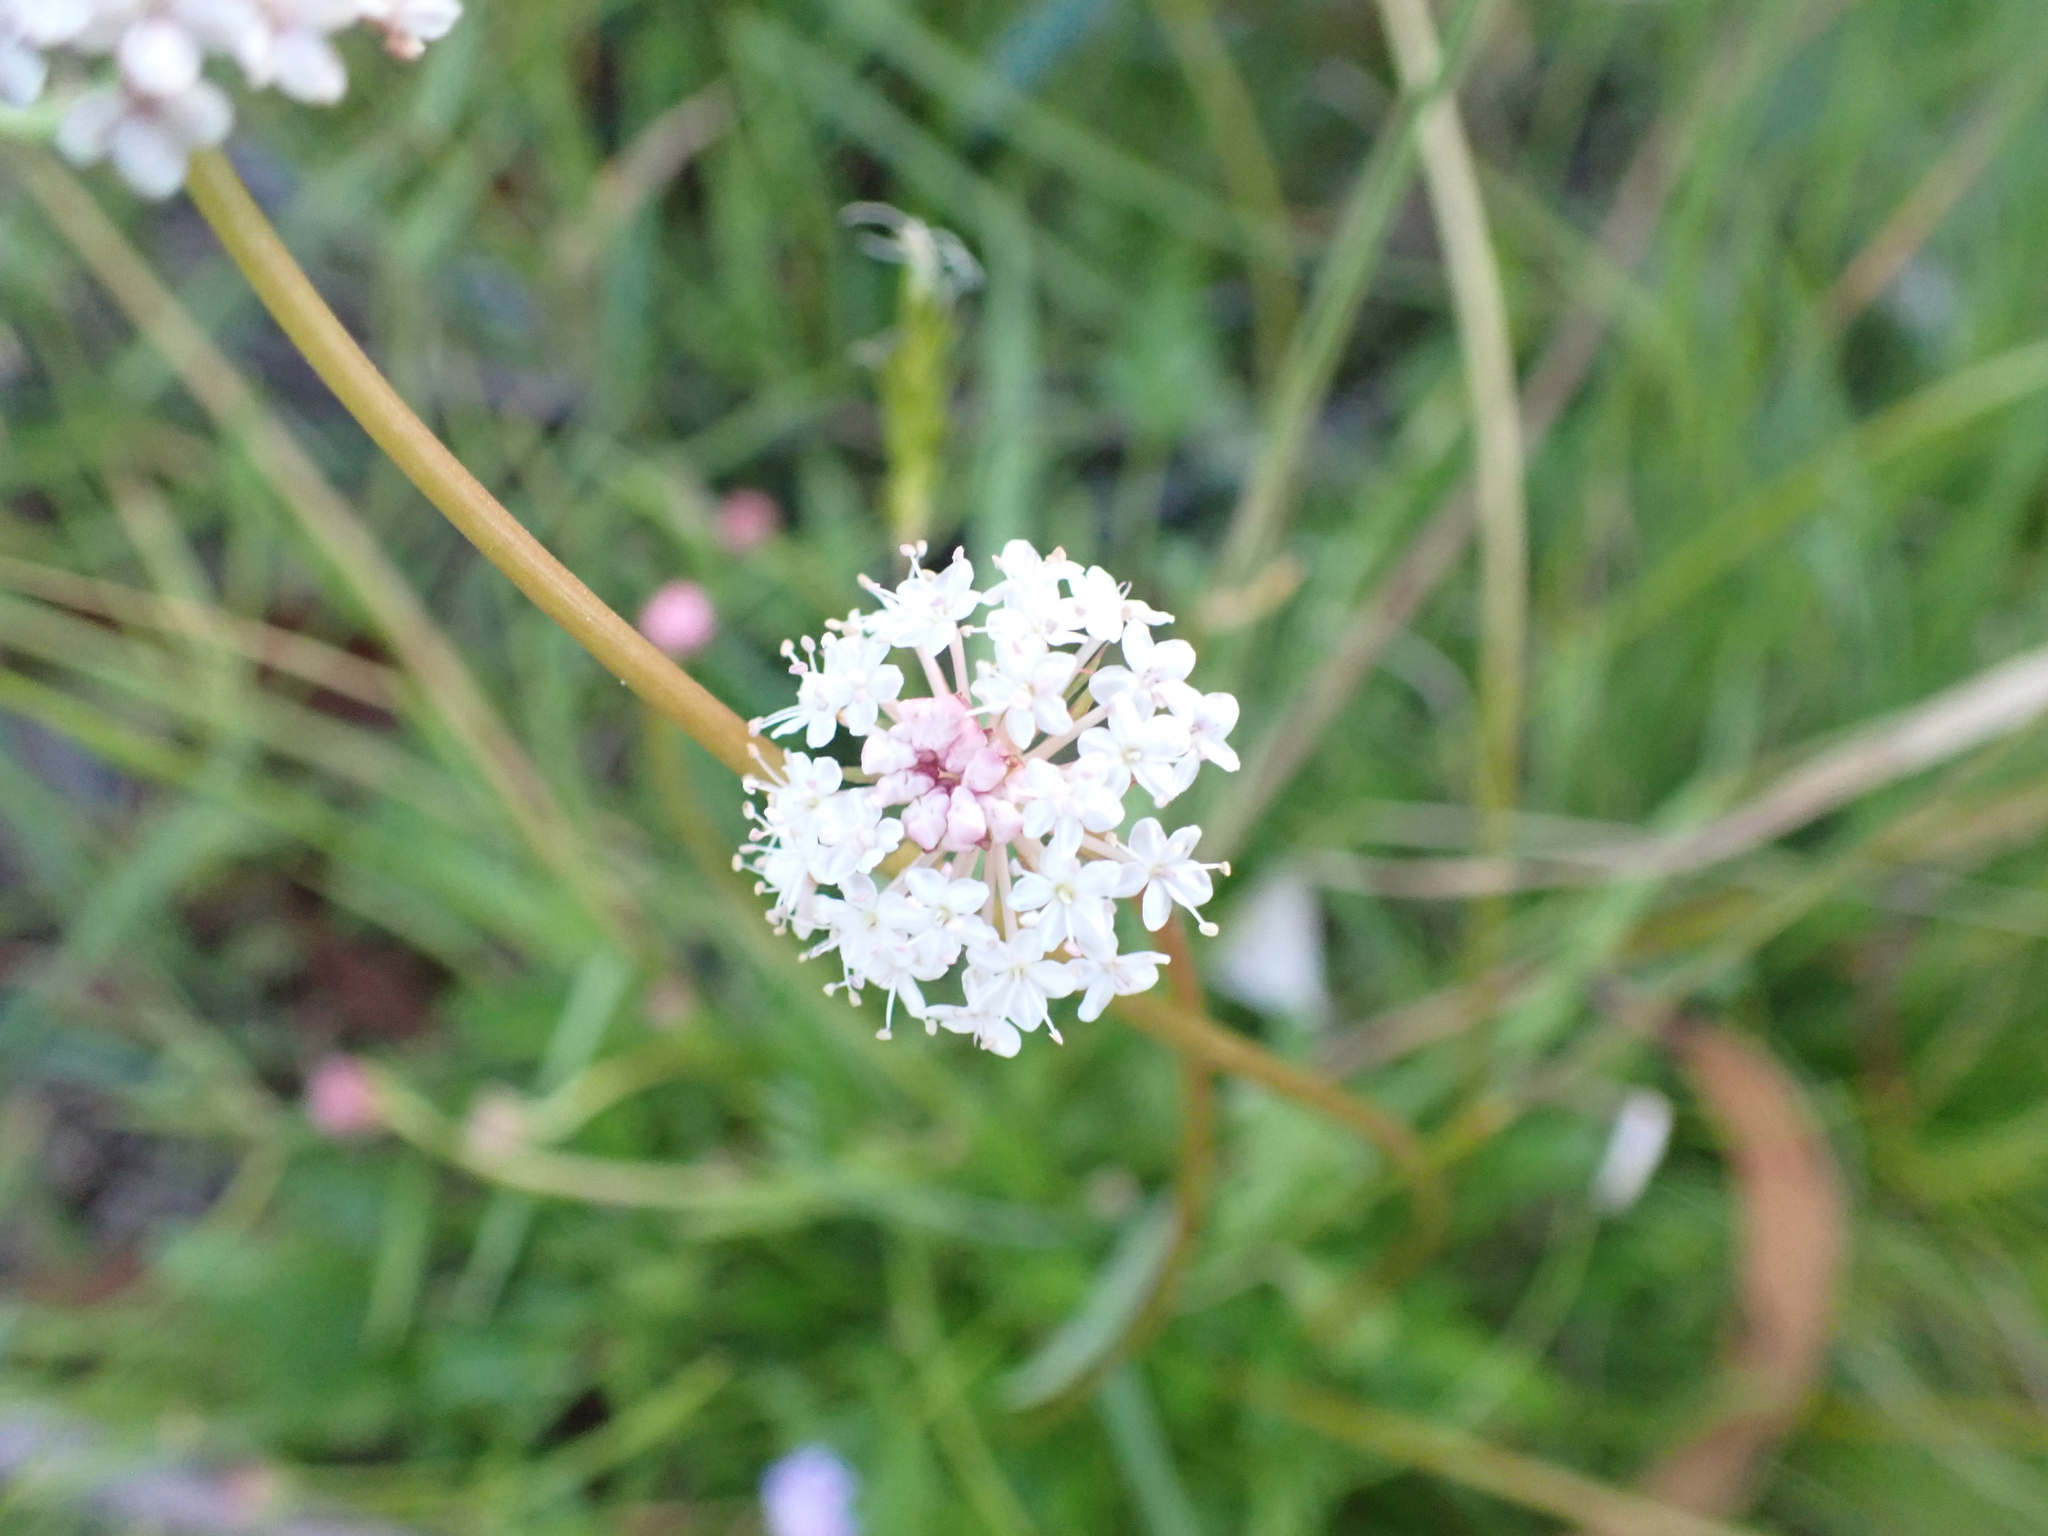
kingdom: Plantae
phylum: Tracheophyta
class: Magnoliopsida
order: Apiales
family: Araliaceae
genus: Trachymene
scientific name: Trachymene humilis
